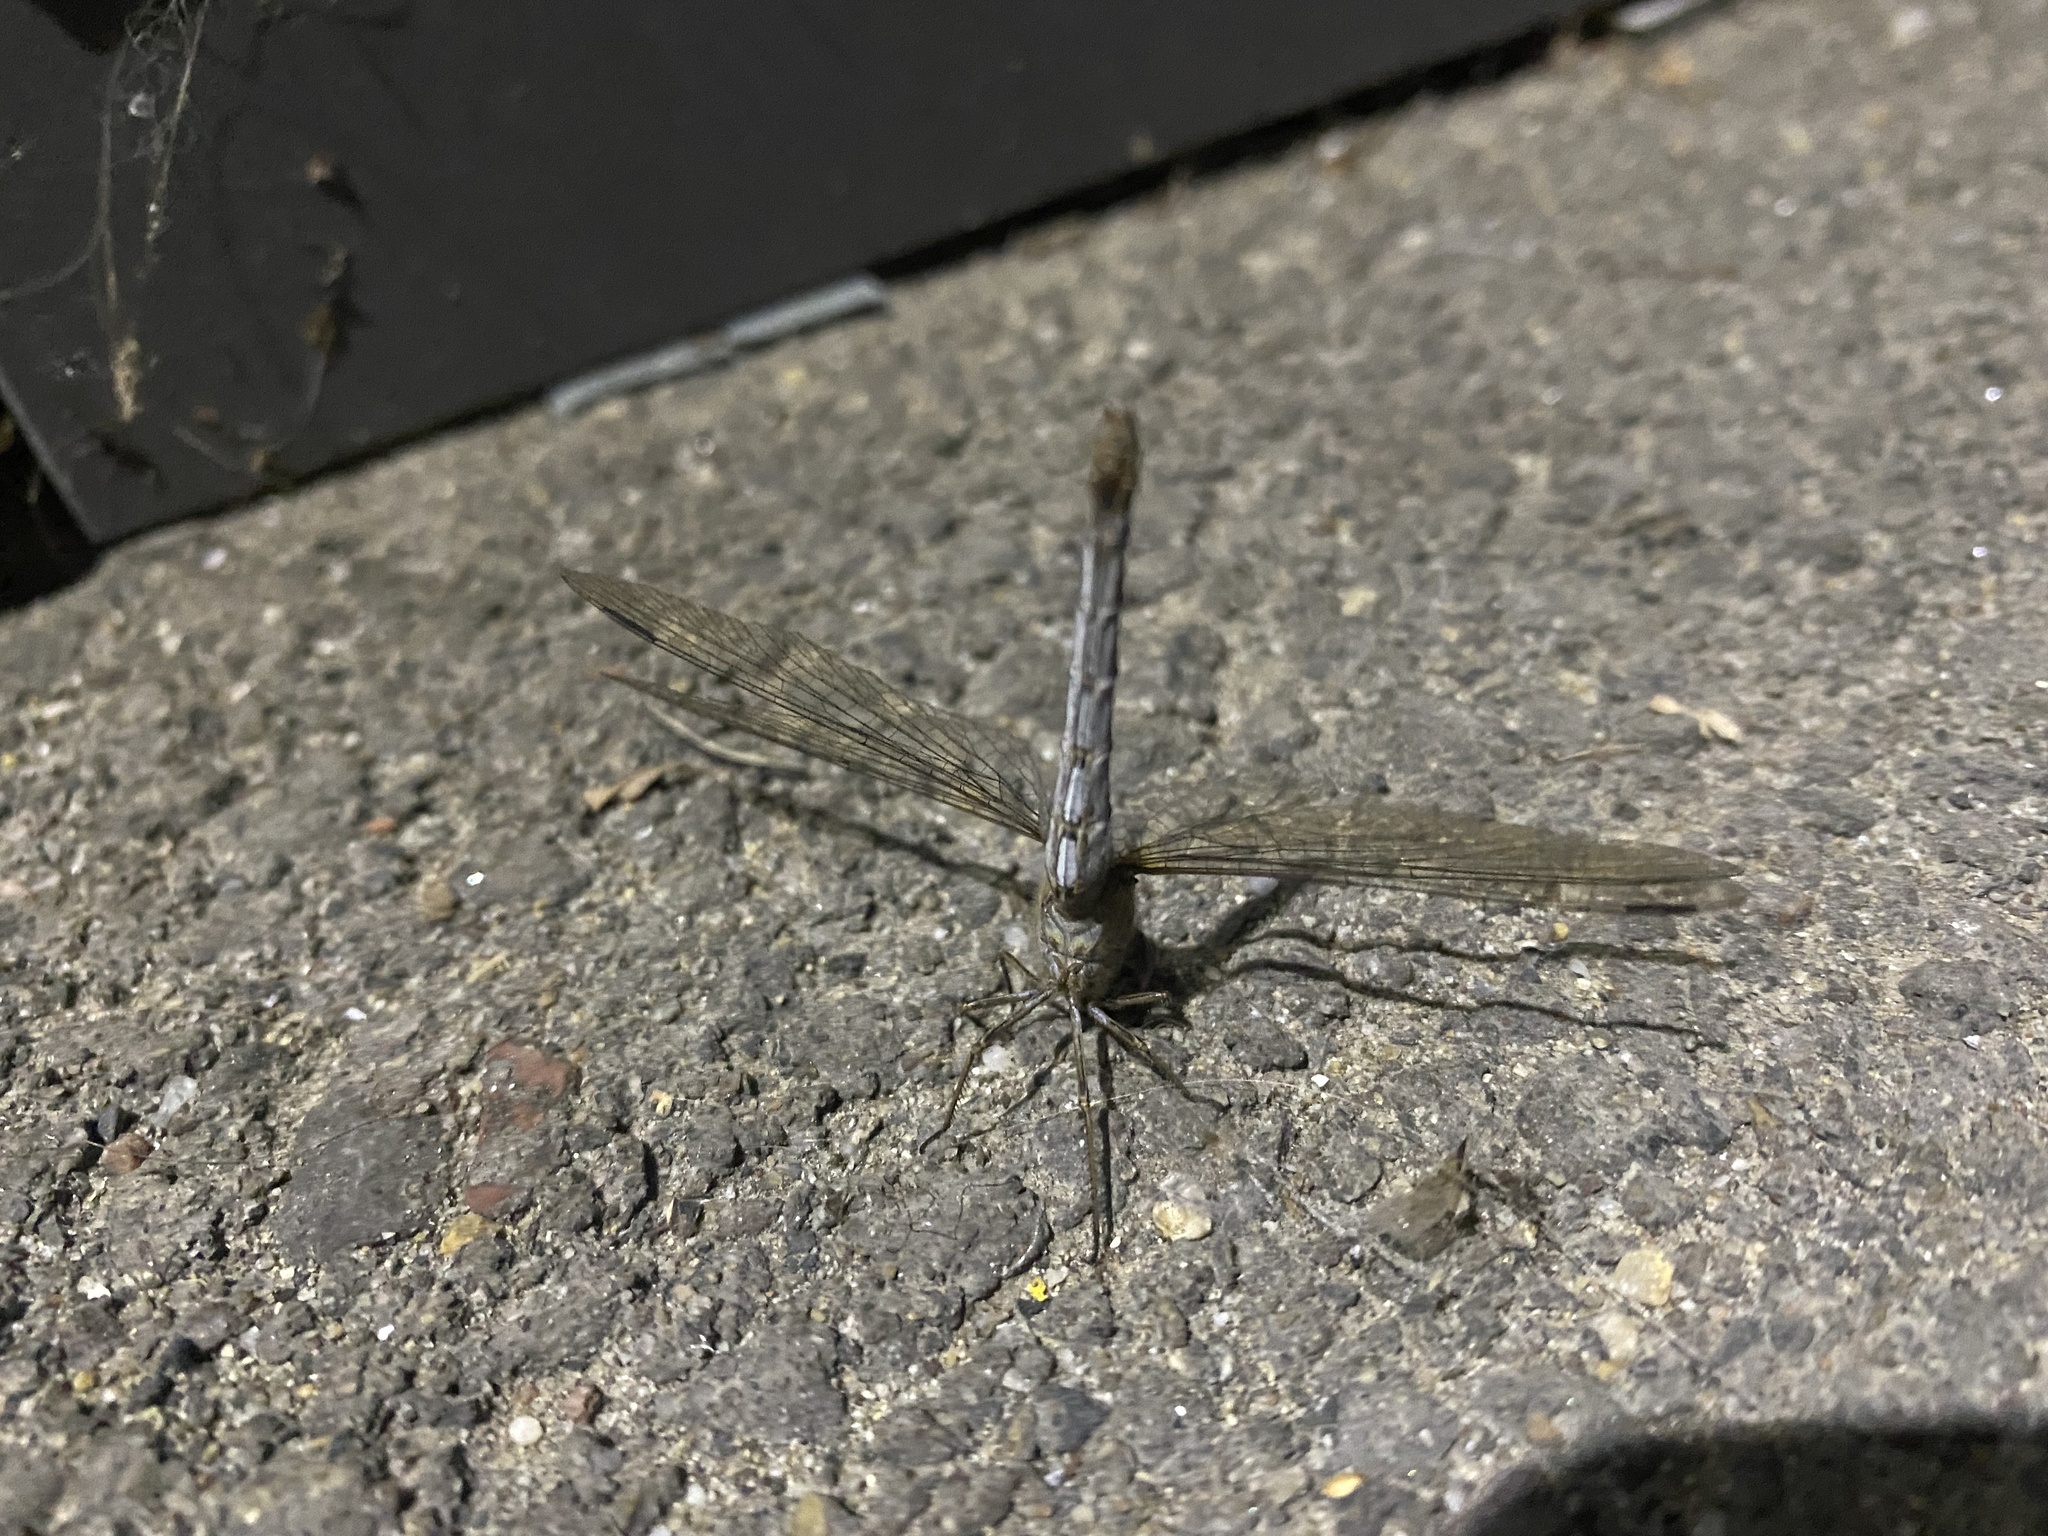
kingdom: Animalia
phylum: Arthropoda
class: Insecta
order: Odonata
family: Libellulidae
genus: Sympetrum
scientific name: Sympetrum striolatum
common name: Common darter
